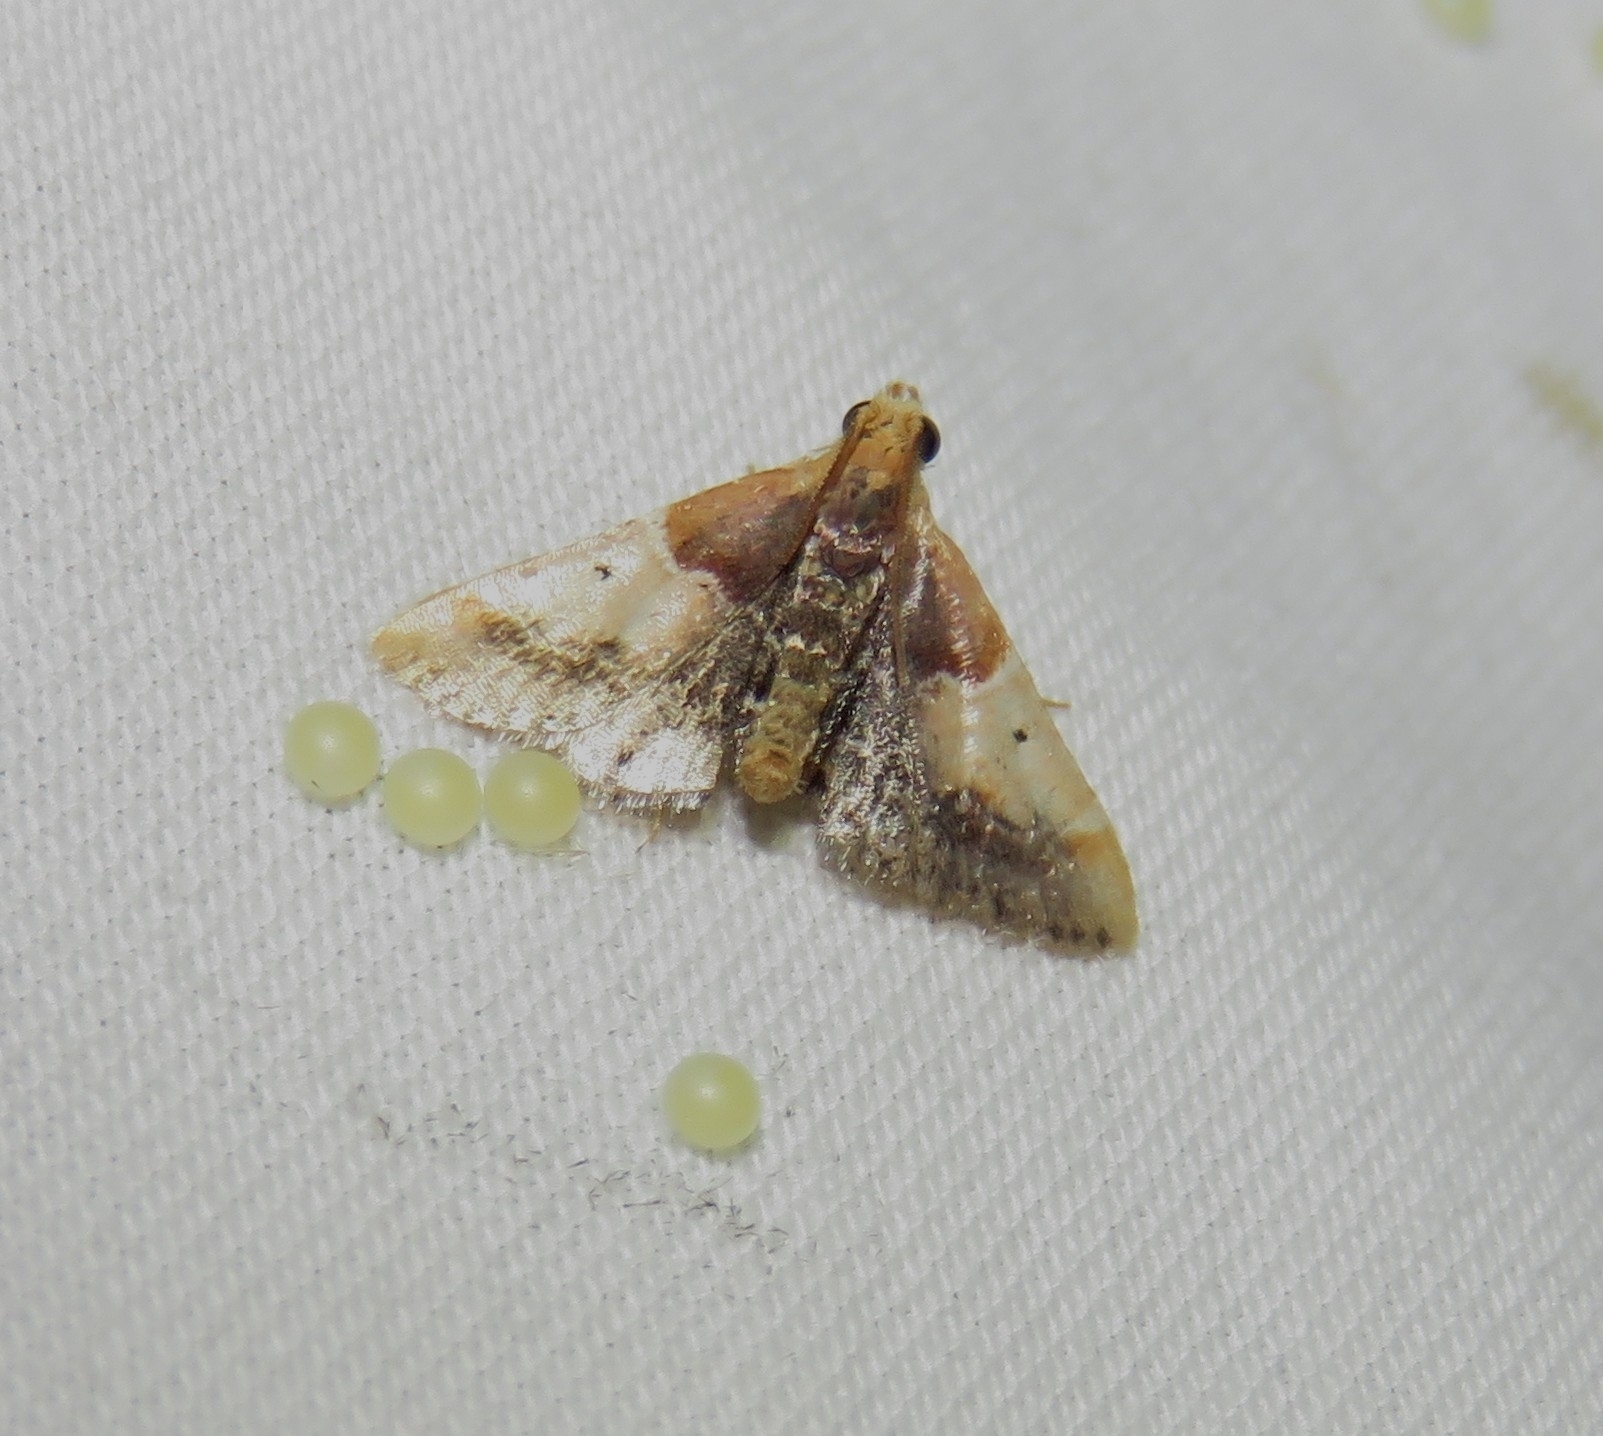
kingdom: Animalia
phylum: Arthropoda
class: Insecta
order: Lepidoptera
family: Pyralidae
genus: Pyralis
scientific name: Pyralis pictalis
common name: Painted meal moth
